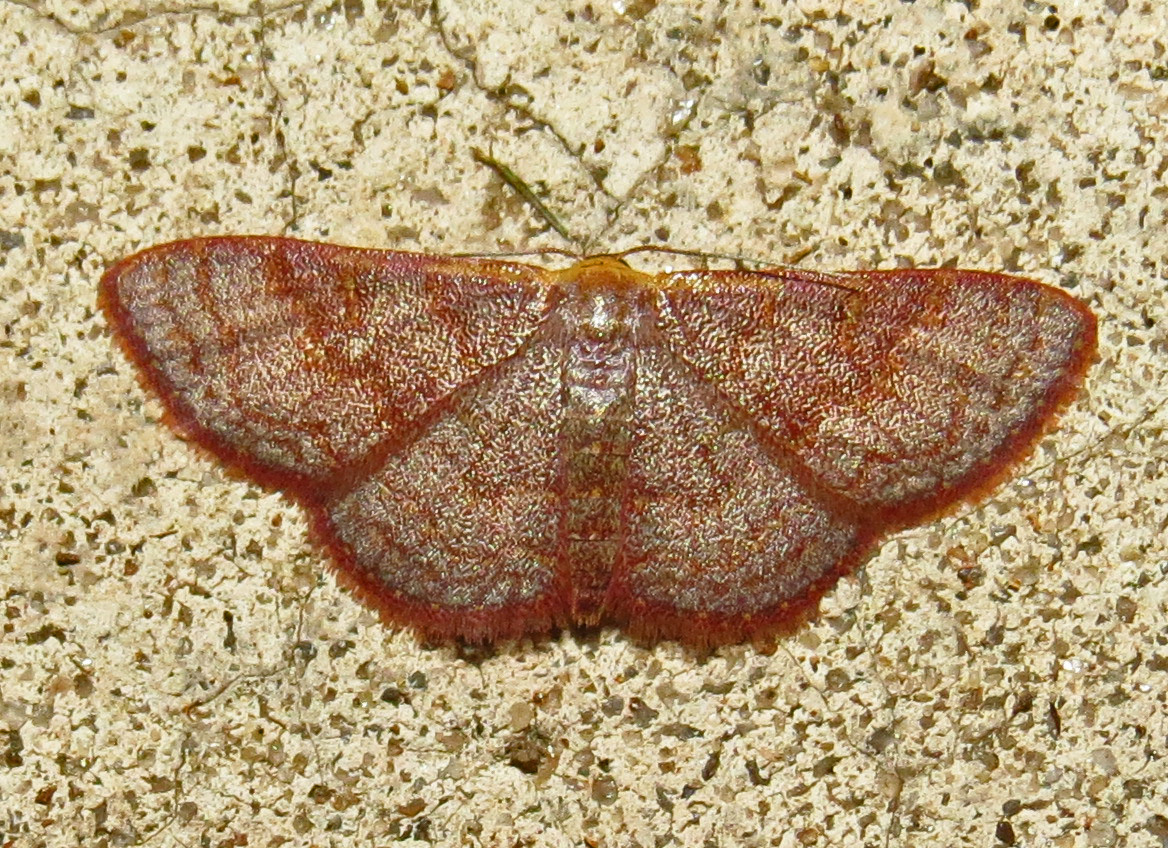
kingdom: Animalia
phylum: Arthropoda
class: Insecta
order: Lepidoptera
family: Geometridae
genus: Leptostales
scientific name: Leptostales pannaria
